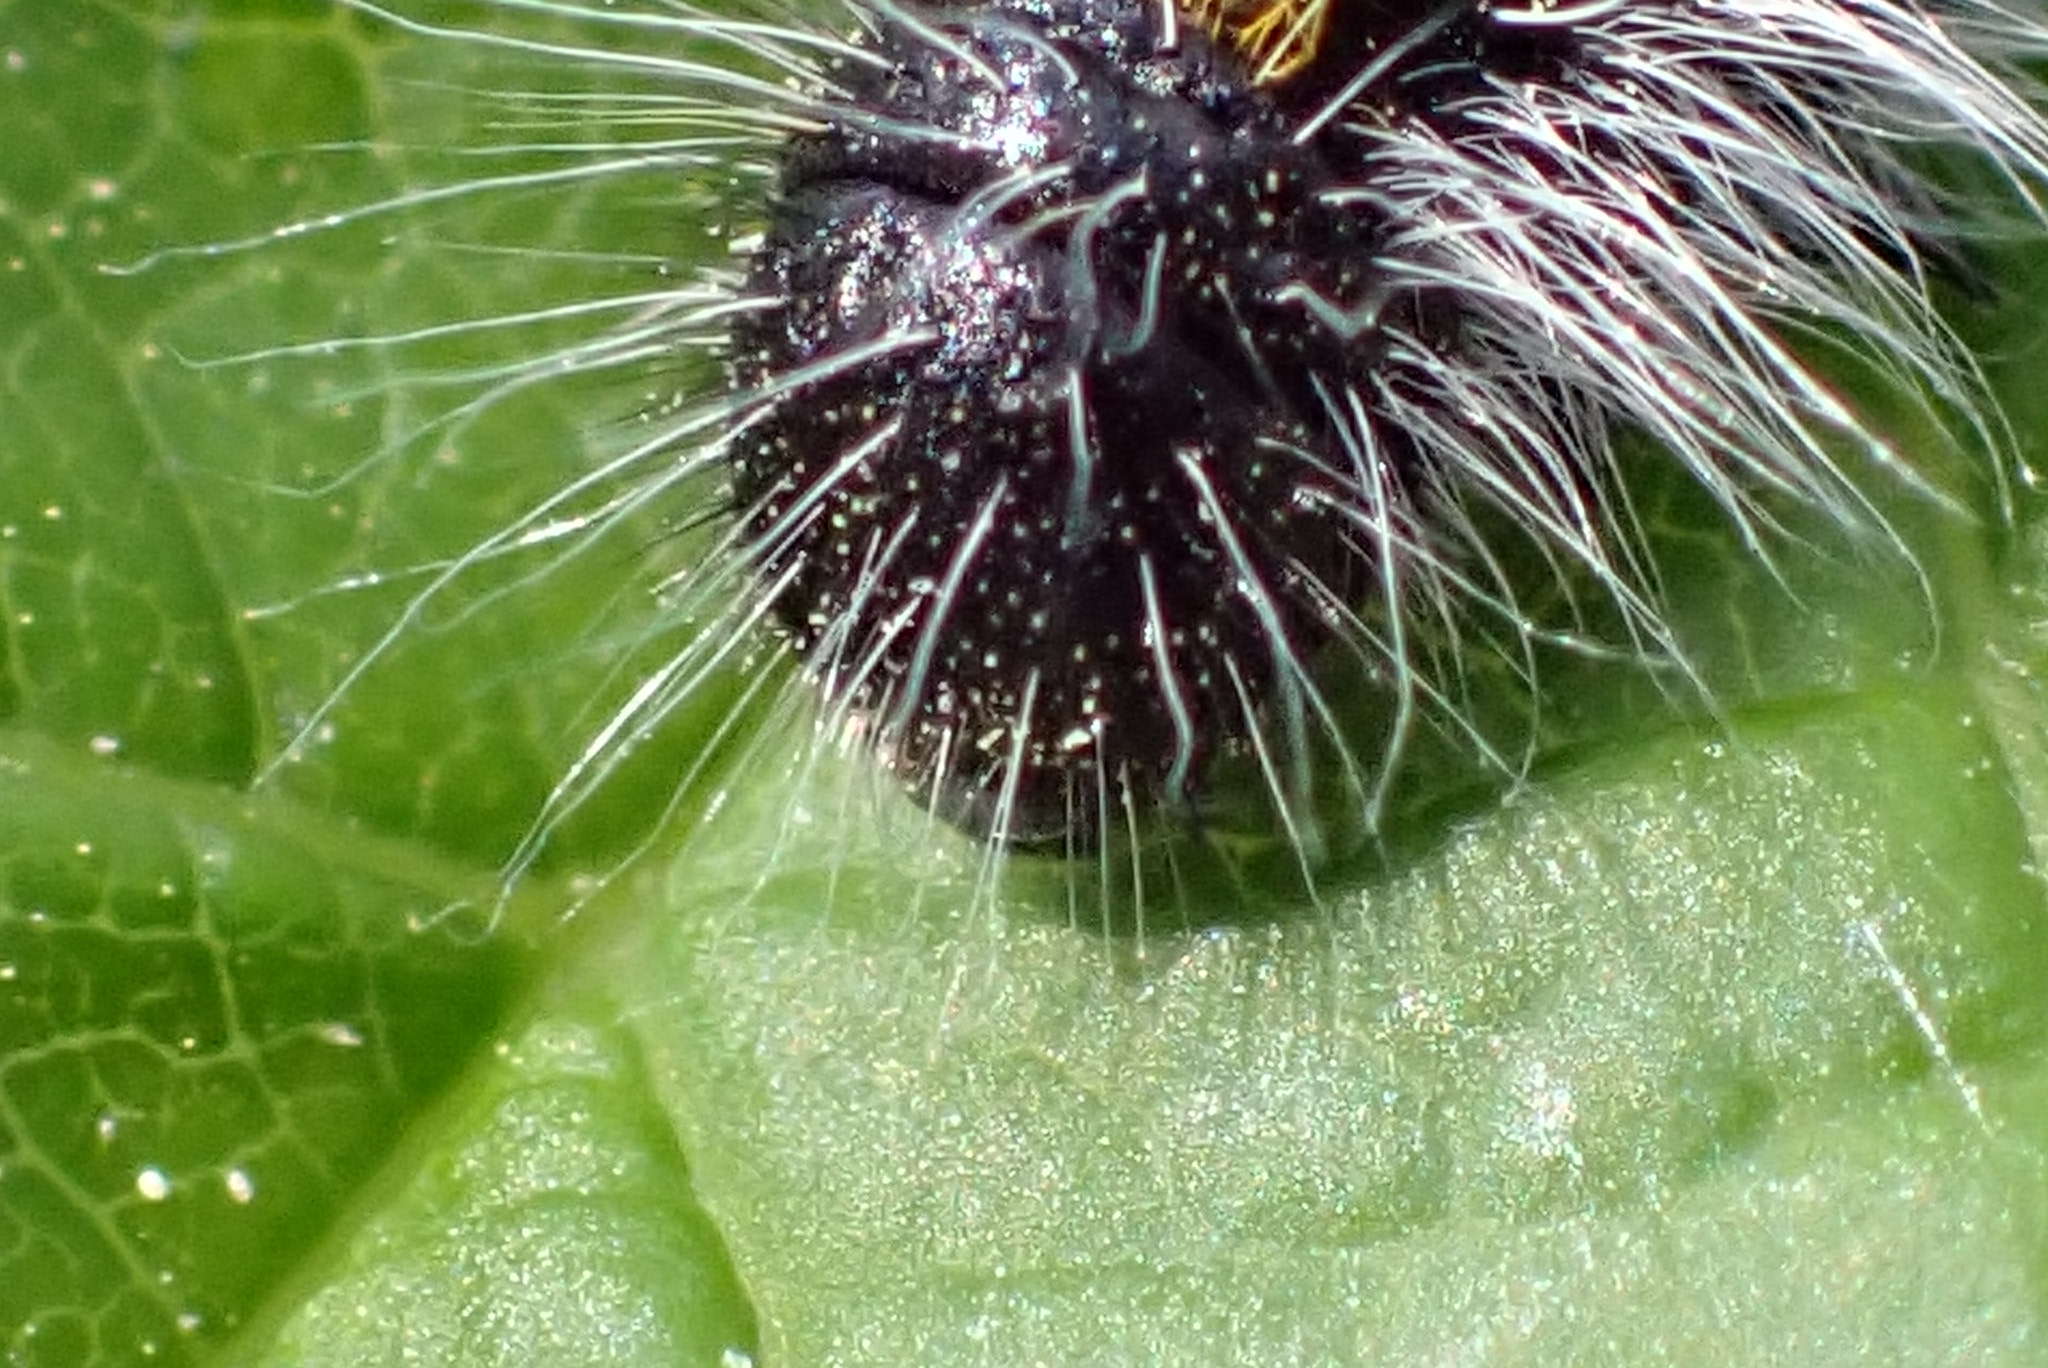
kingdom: Animalia
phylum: Arthropoda
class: Insecta
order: Lepidoptera
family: Pieridae
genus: Aporia
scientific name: Aporia crataegi
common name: Black-veined white
